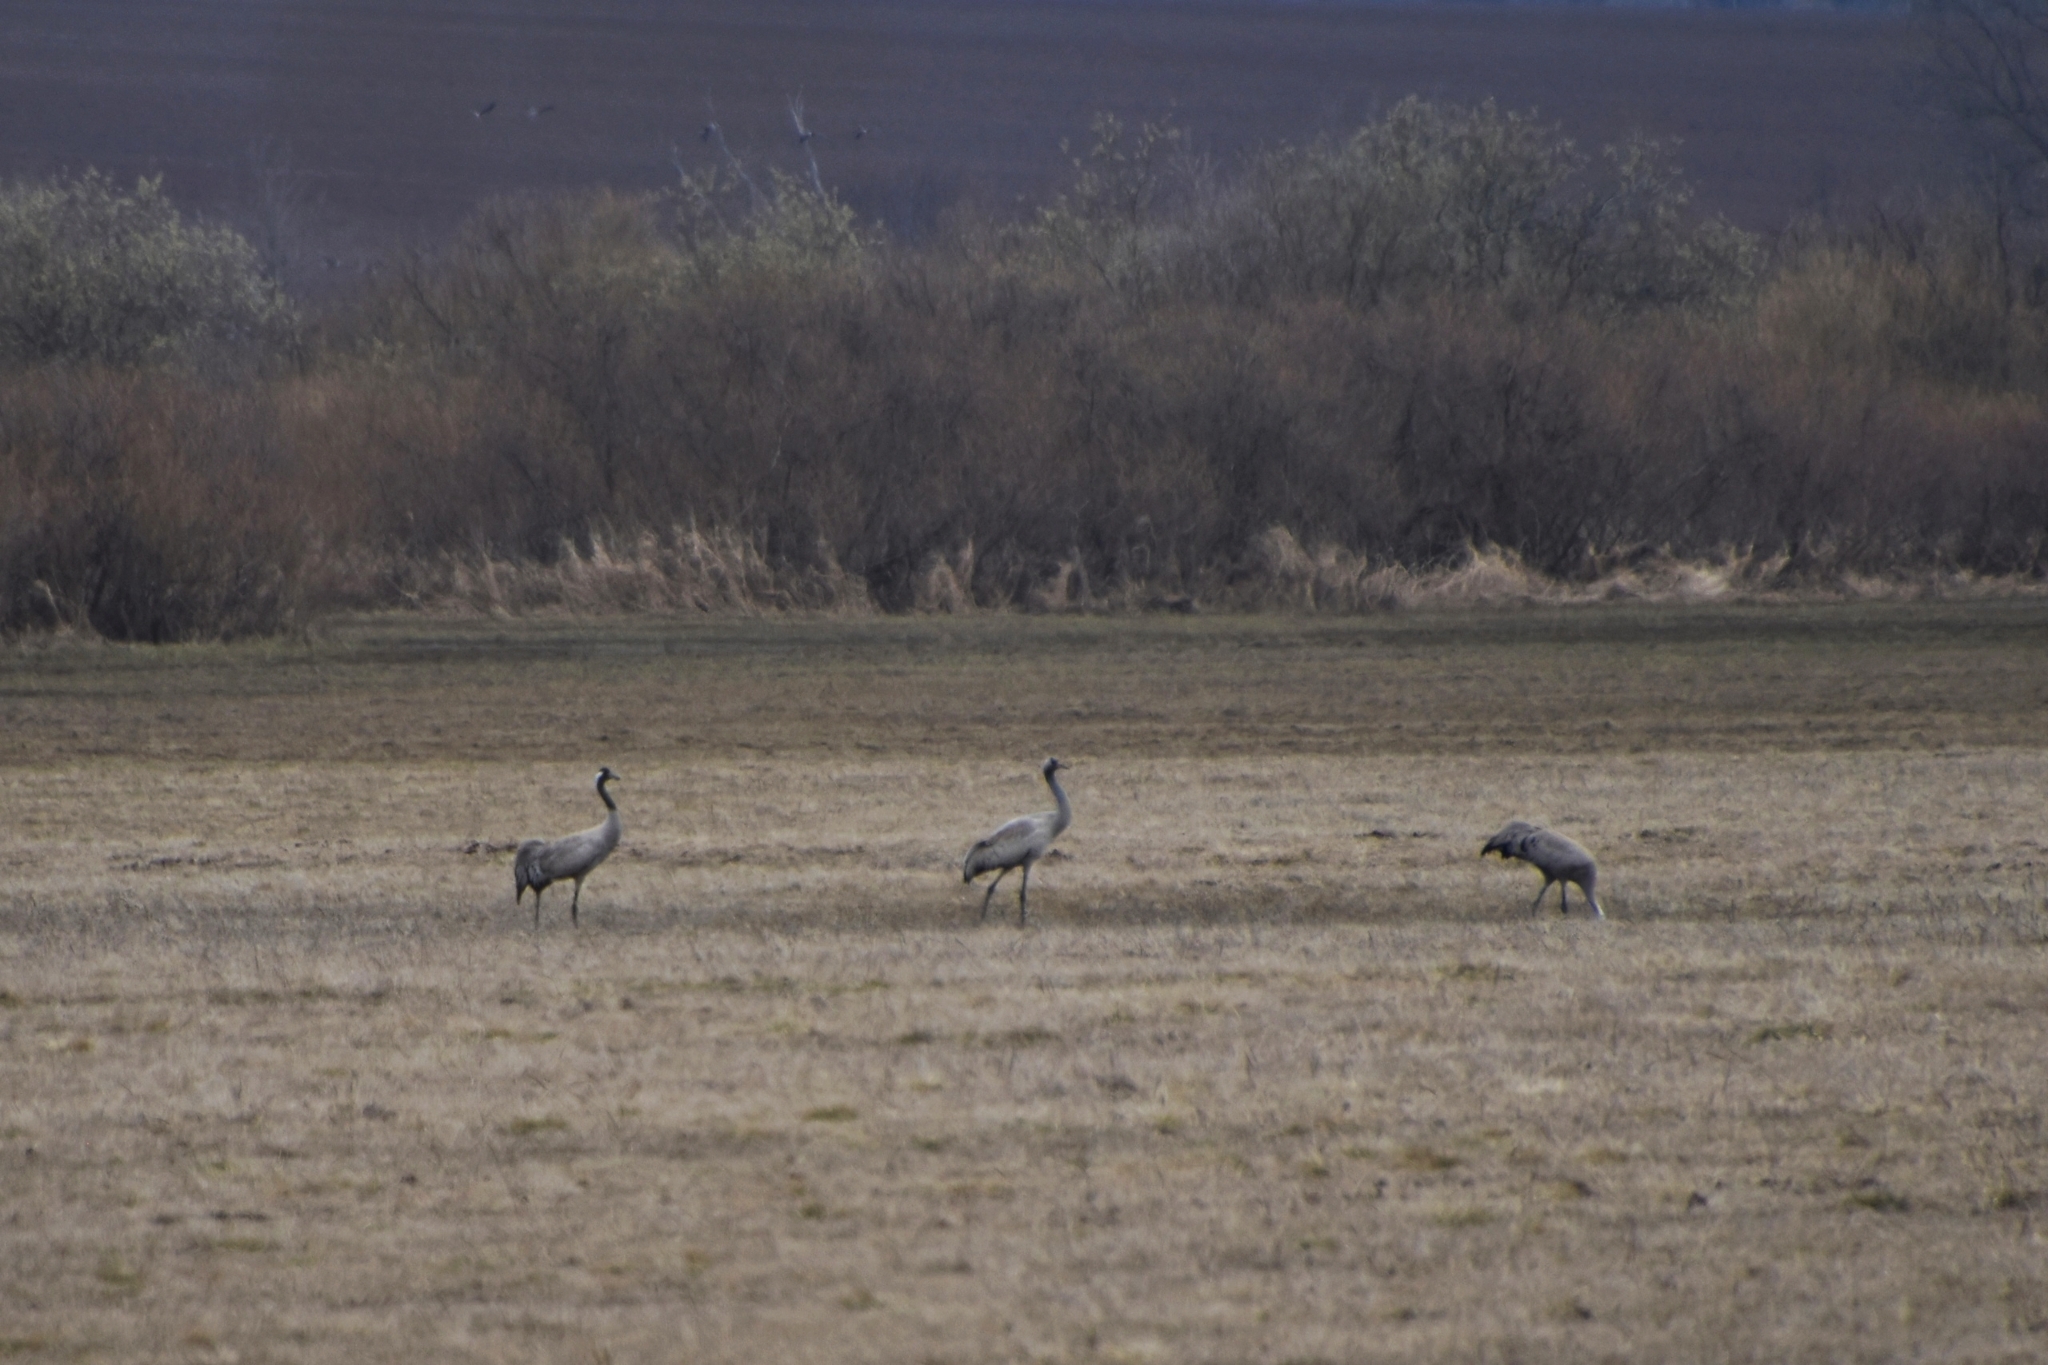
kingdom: Animalia
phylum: Chordata
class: Aves
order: Gruiformes
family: Gruidae
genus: Grus
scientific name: Grus grus
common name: Common crane
